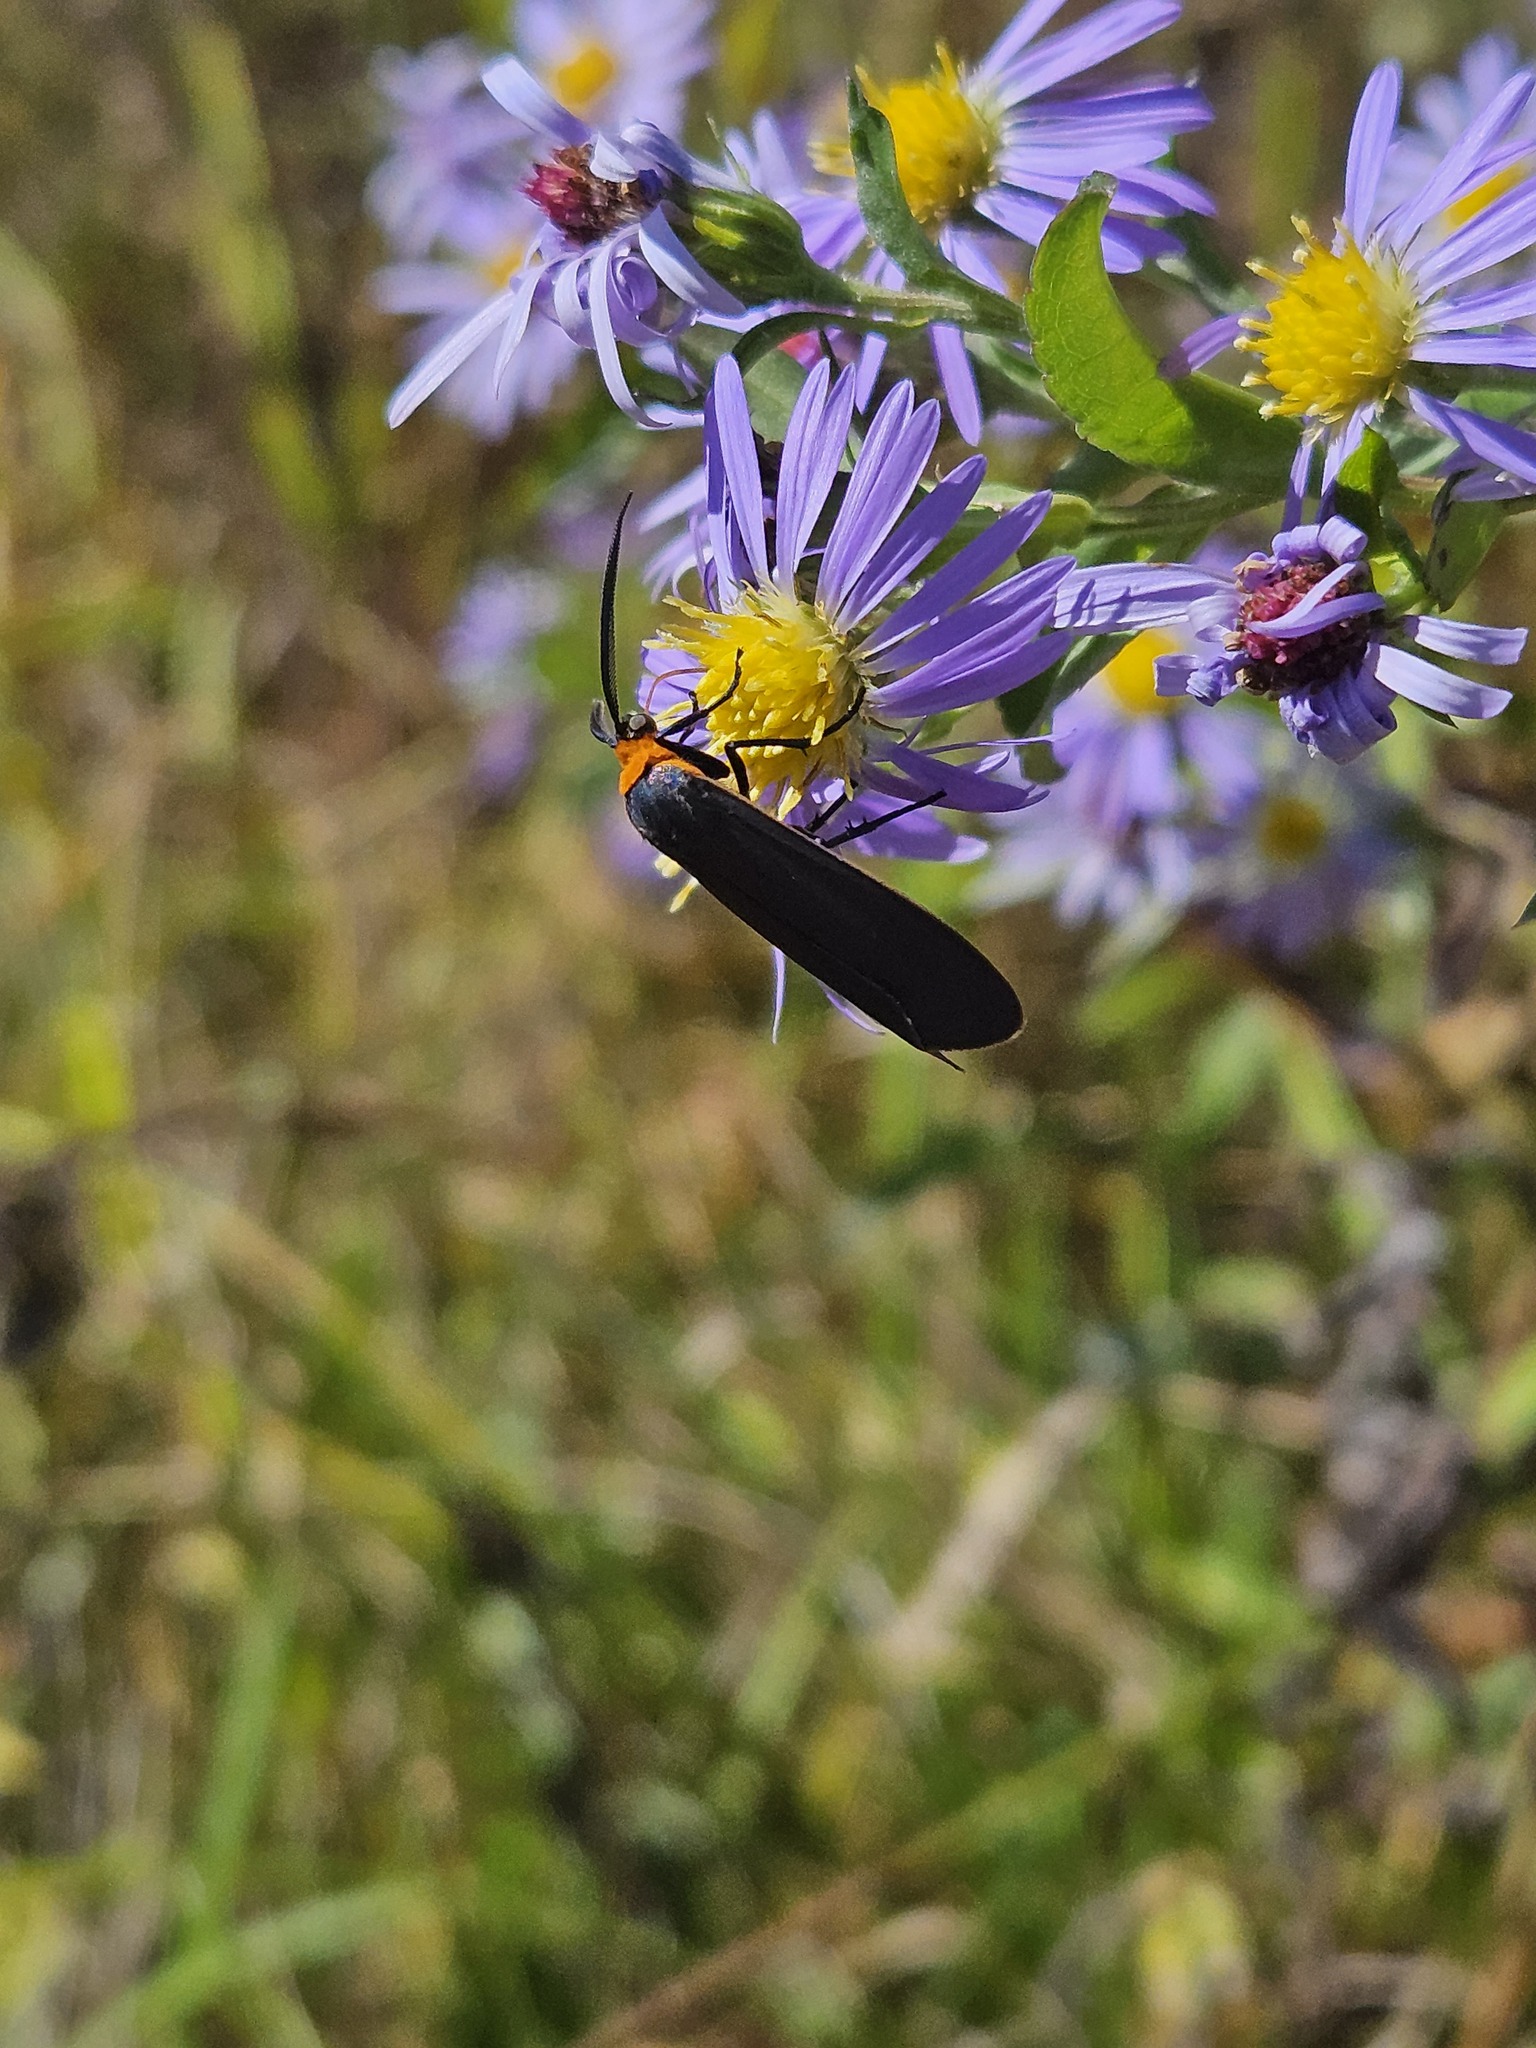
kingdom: Animalia
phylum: Arthropoda
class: Insecta
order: Lepidoptera
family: Erebidae
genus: Cisseps
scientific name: Cisseps fulvicollis
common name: Yellow-collared scape moth
